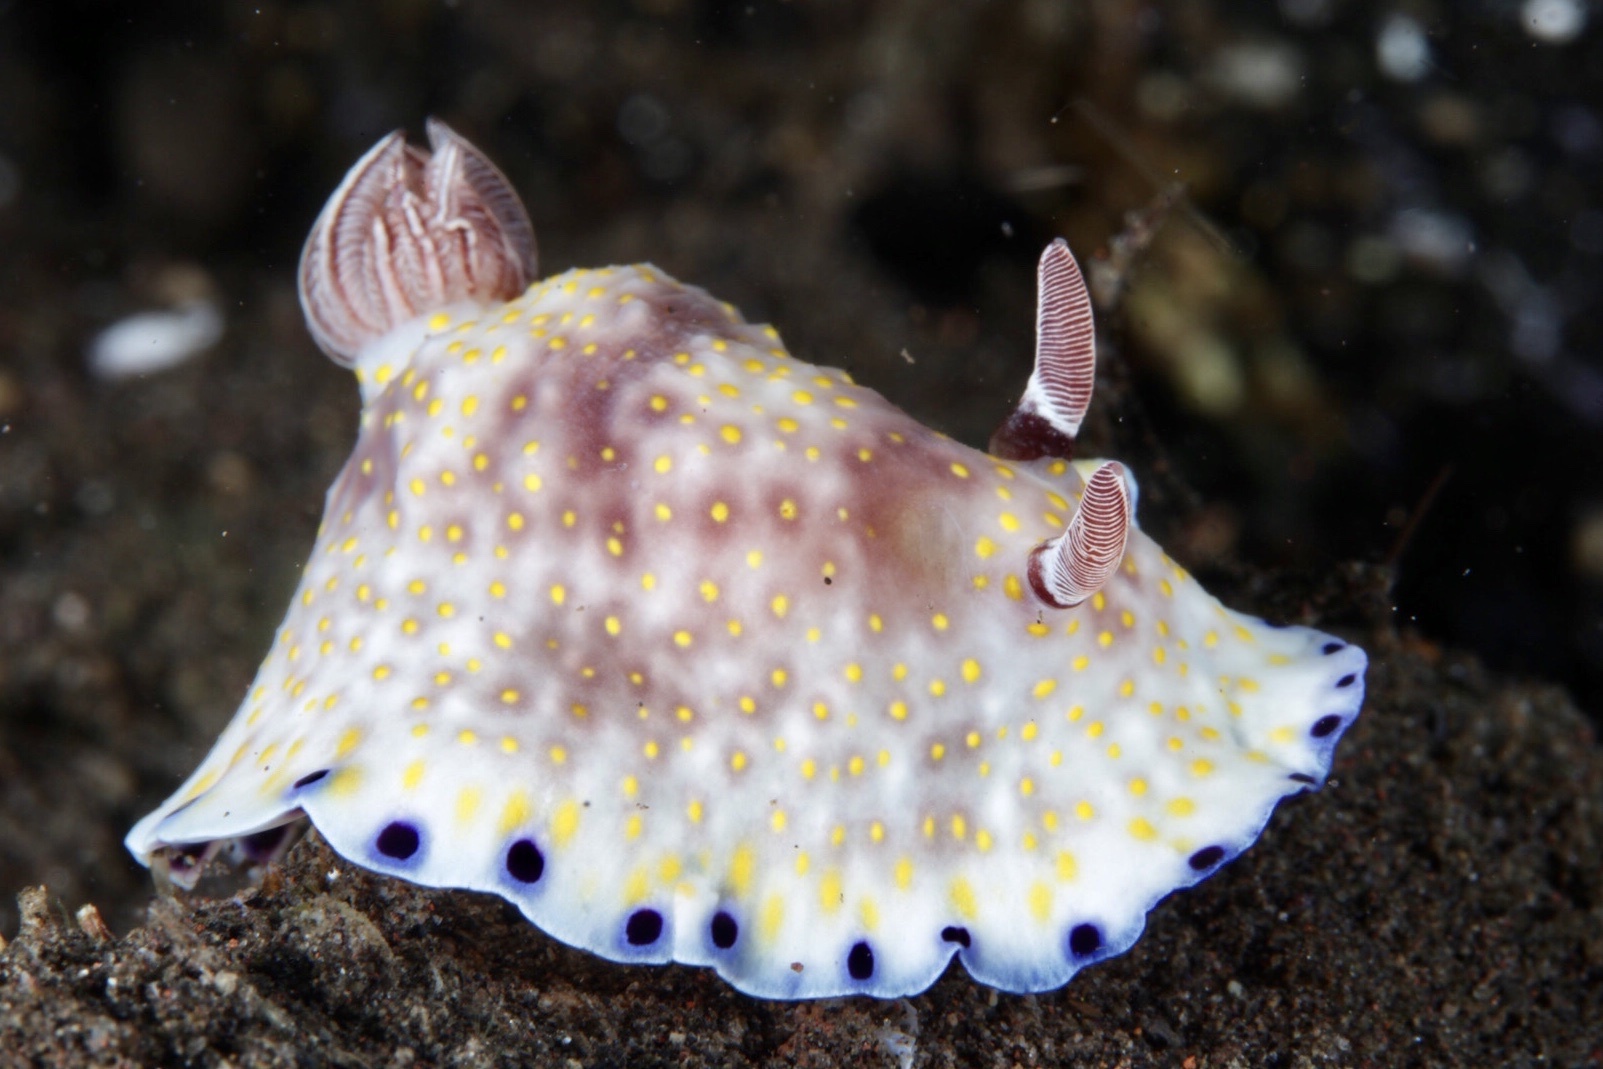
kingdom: Animalia
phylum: Mollusca
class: Gastropoda
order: Nudibranchia
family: Chromodorididae
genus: Goniobranchus
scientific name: Goniobranchus aureopurpureus
